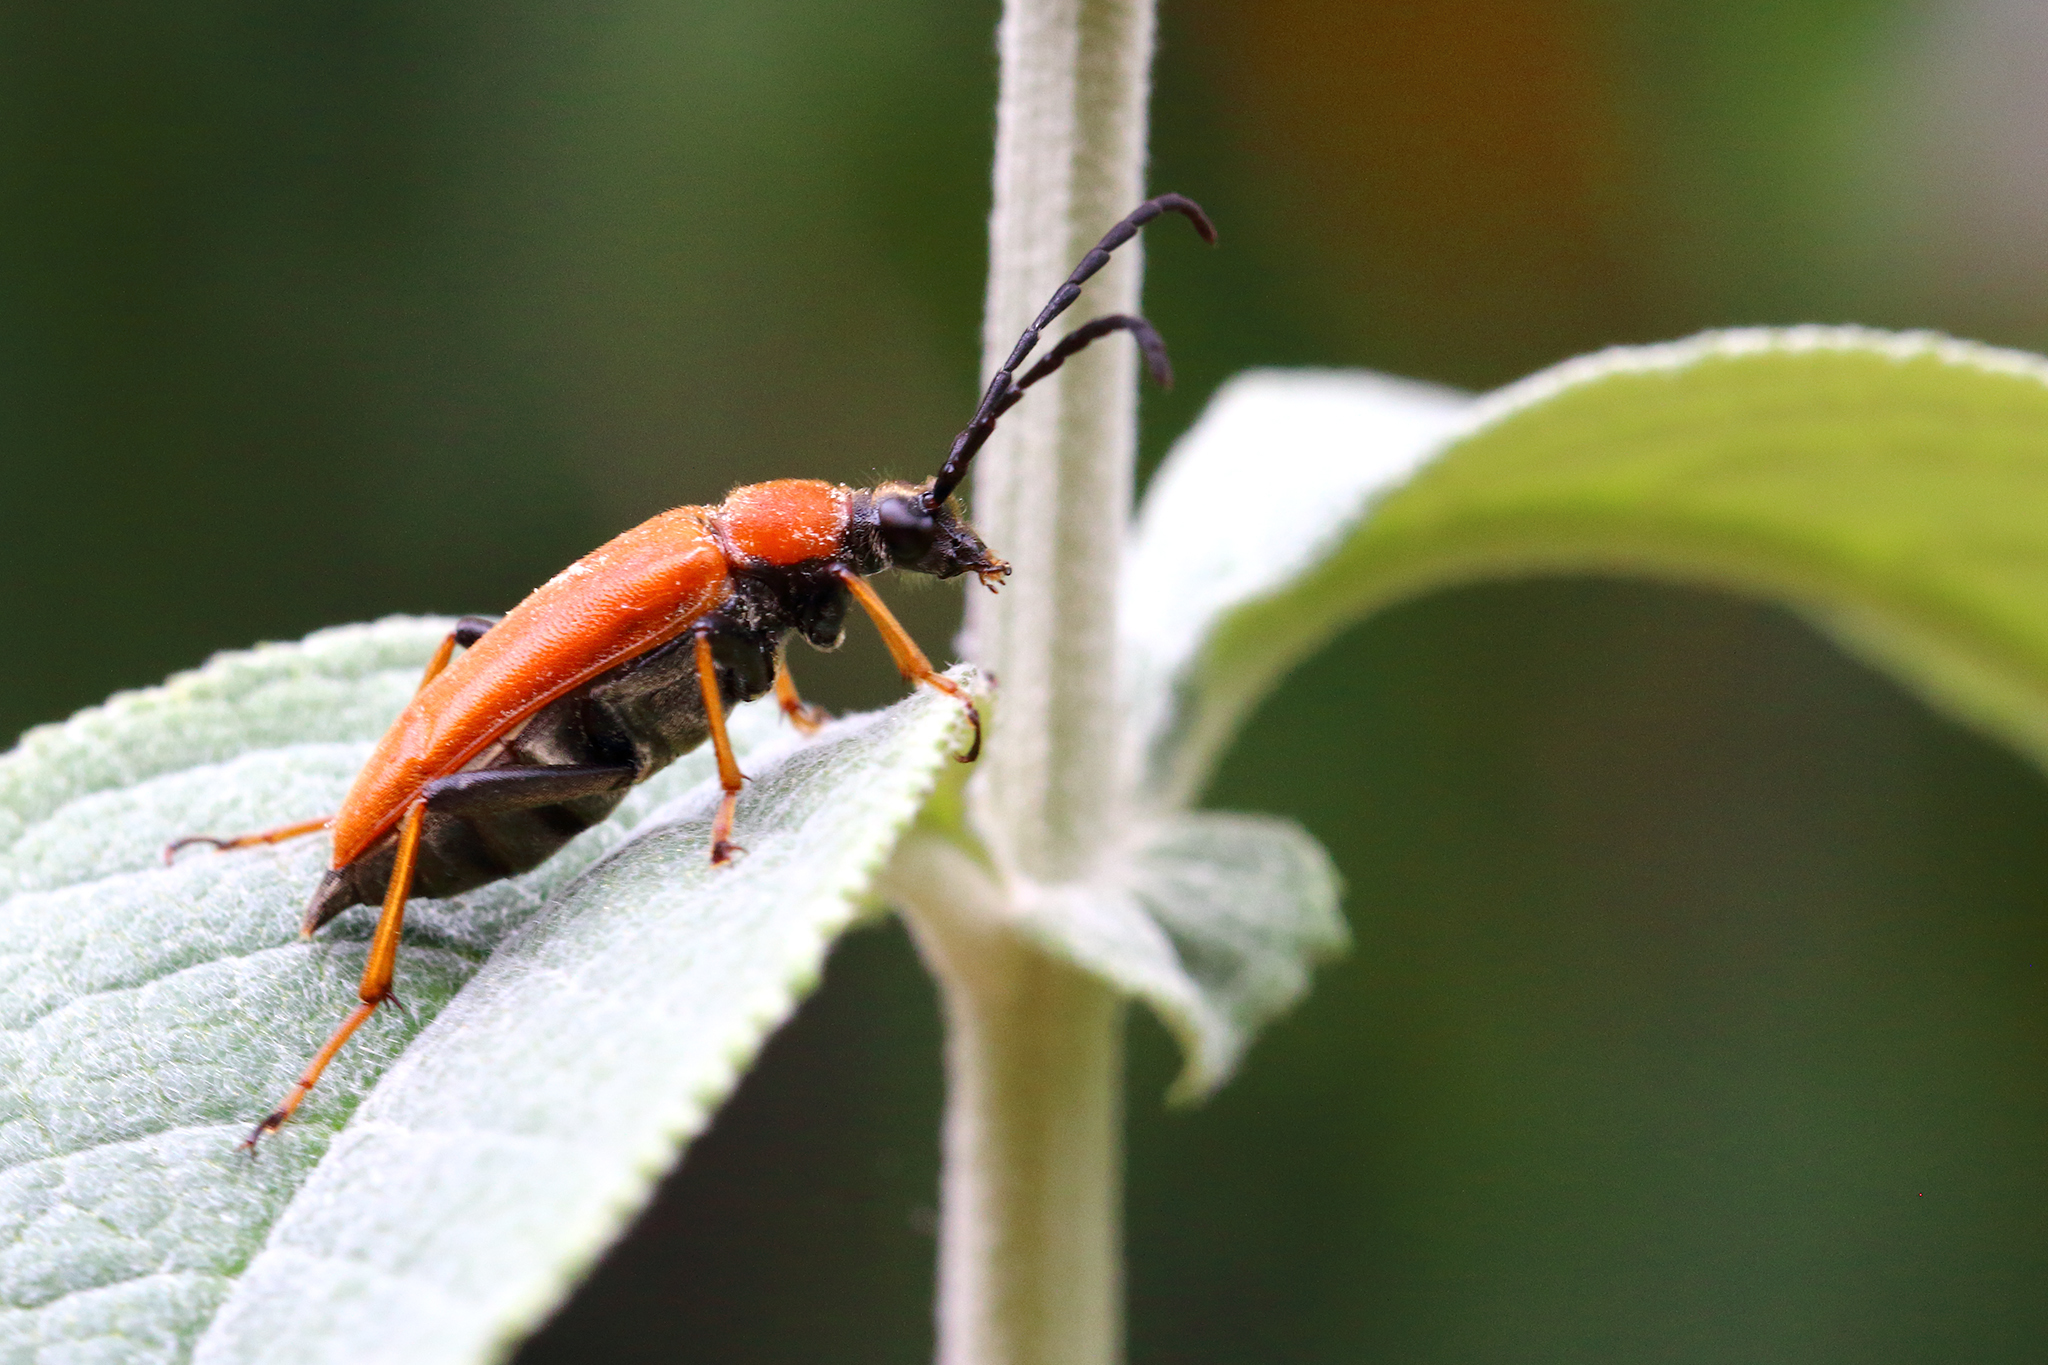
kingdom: Animalia
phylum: Arthropoda
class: Insecta
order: Coleoptera
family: Cerambycidae
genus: Stictoleptura
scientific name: Stictoleptura rubra
